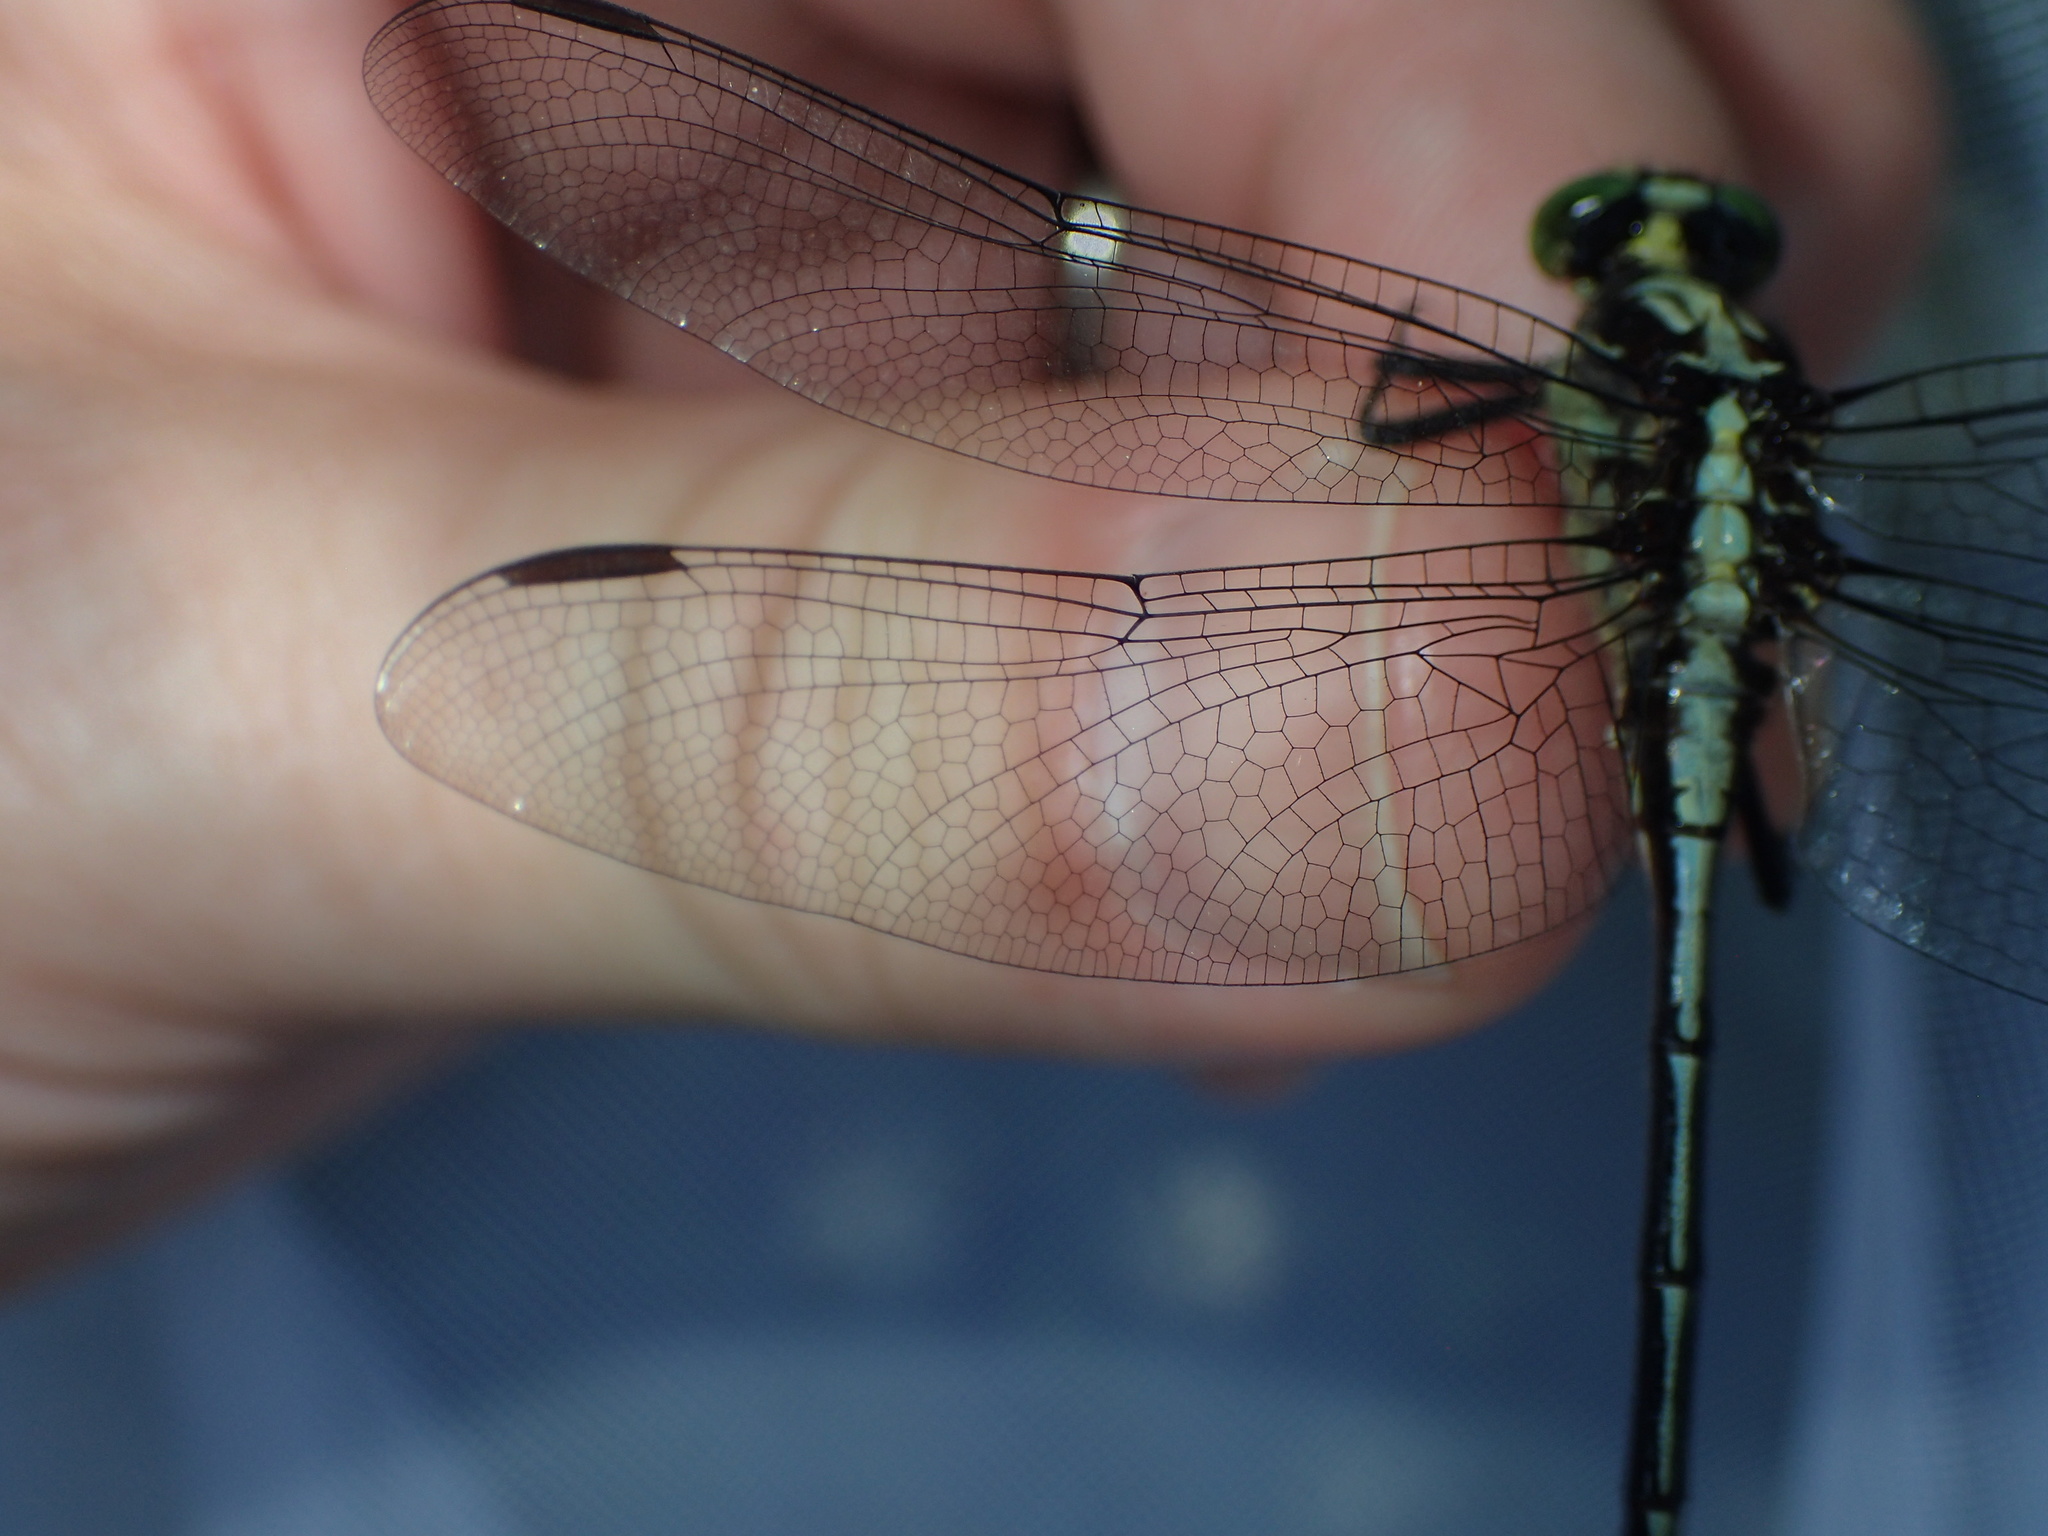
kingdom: Animalia
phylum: Arthropoda
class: Insecta
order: Odonata
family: Gomphidae
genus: Dromogomphus
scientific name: Dromogomphus spinosus
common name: Black-shouldered spinyleg
